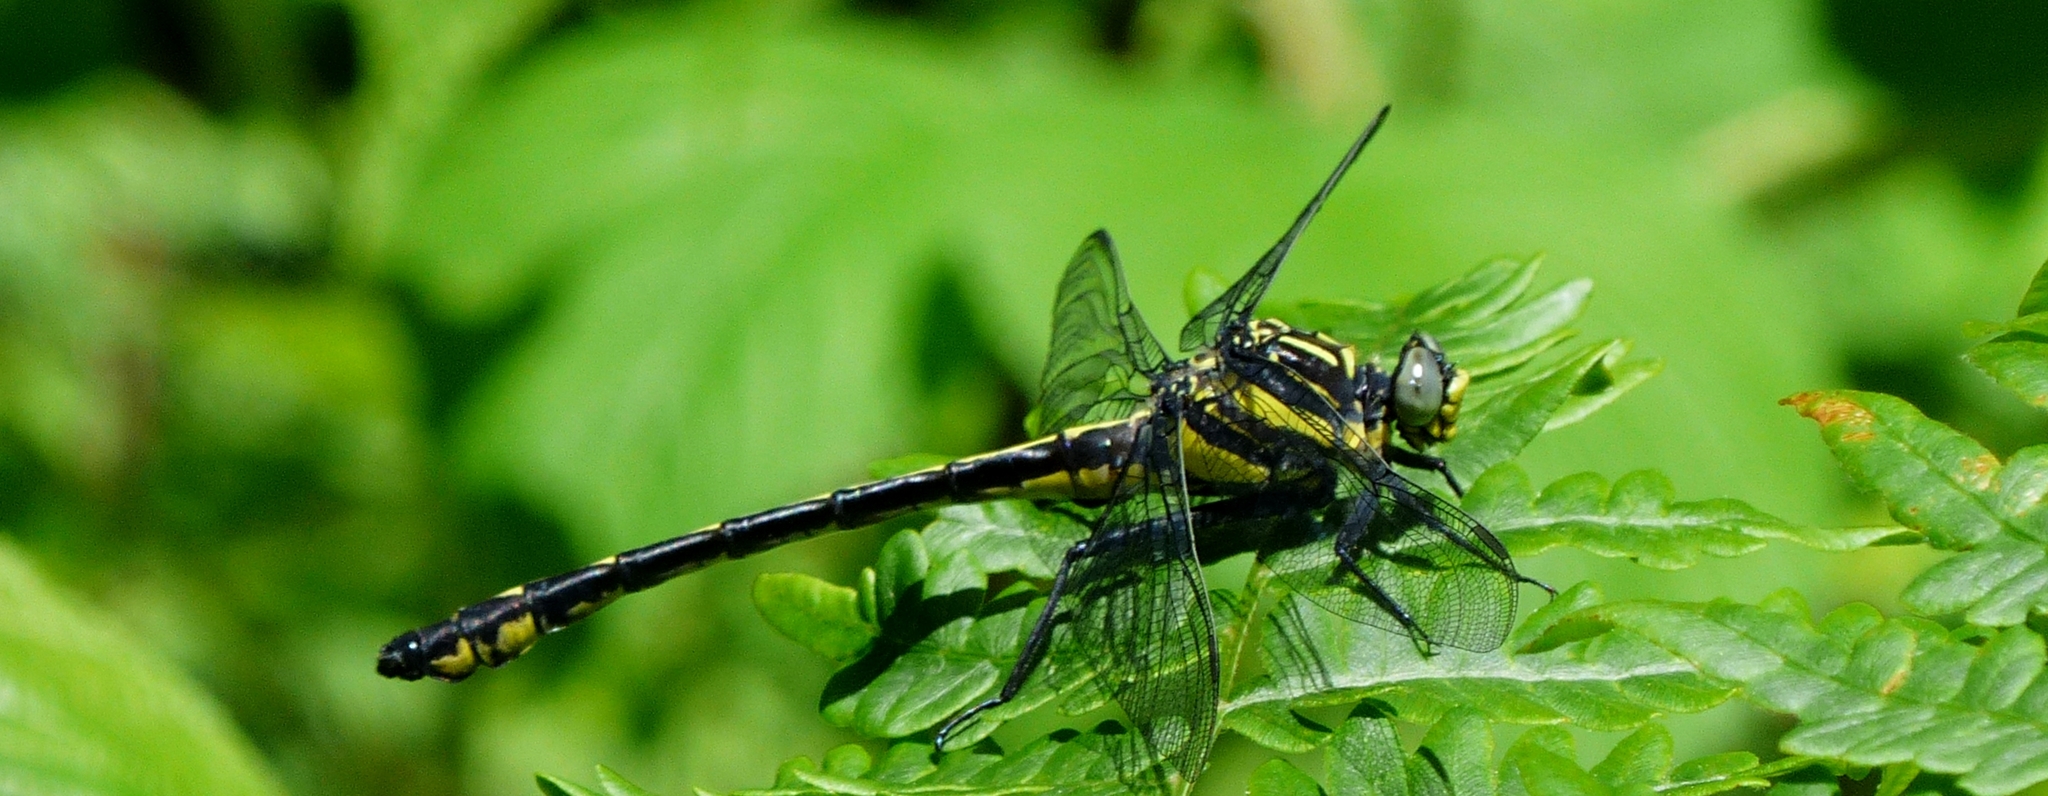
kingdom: Animalia
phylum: Arthropoda
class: Insecta
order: Odonata
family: Gomphidae
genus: Hagenius
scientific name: Hagenius brevistylus
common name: Dragonhunter
